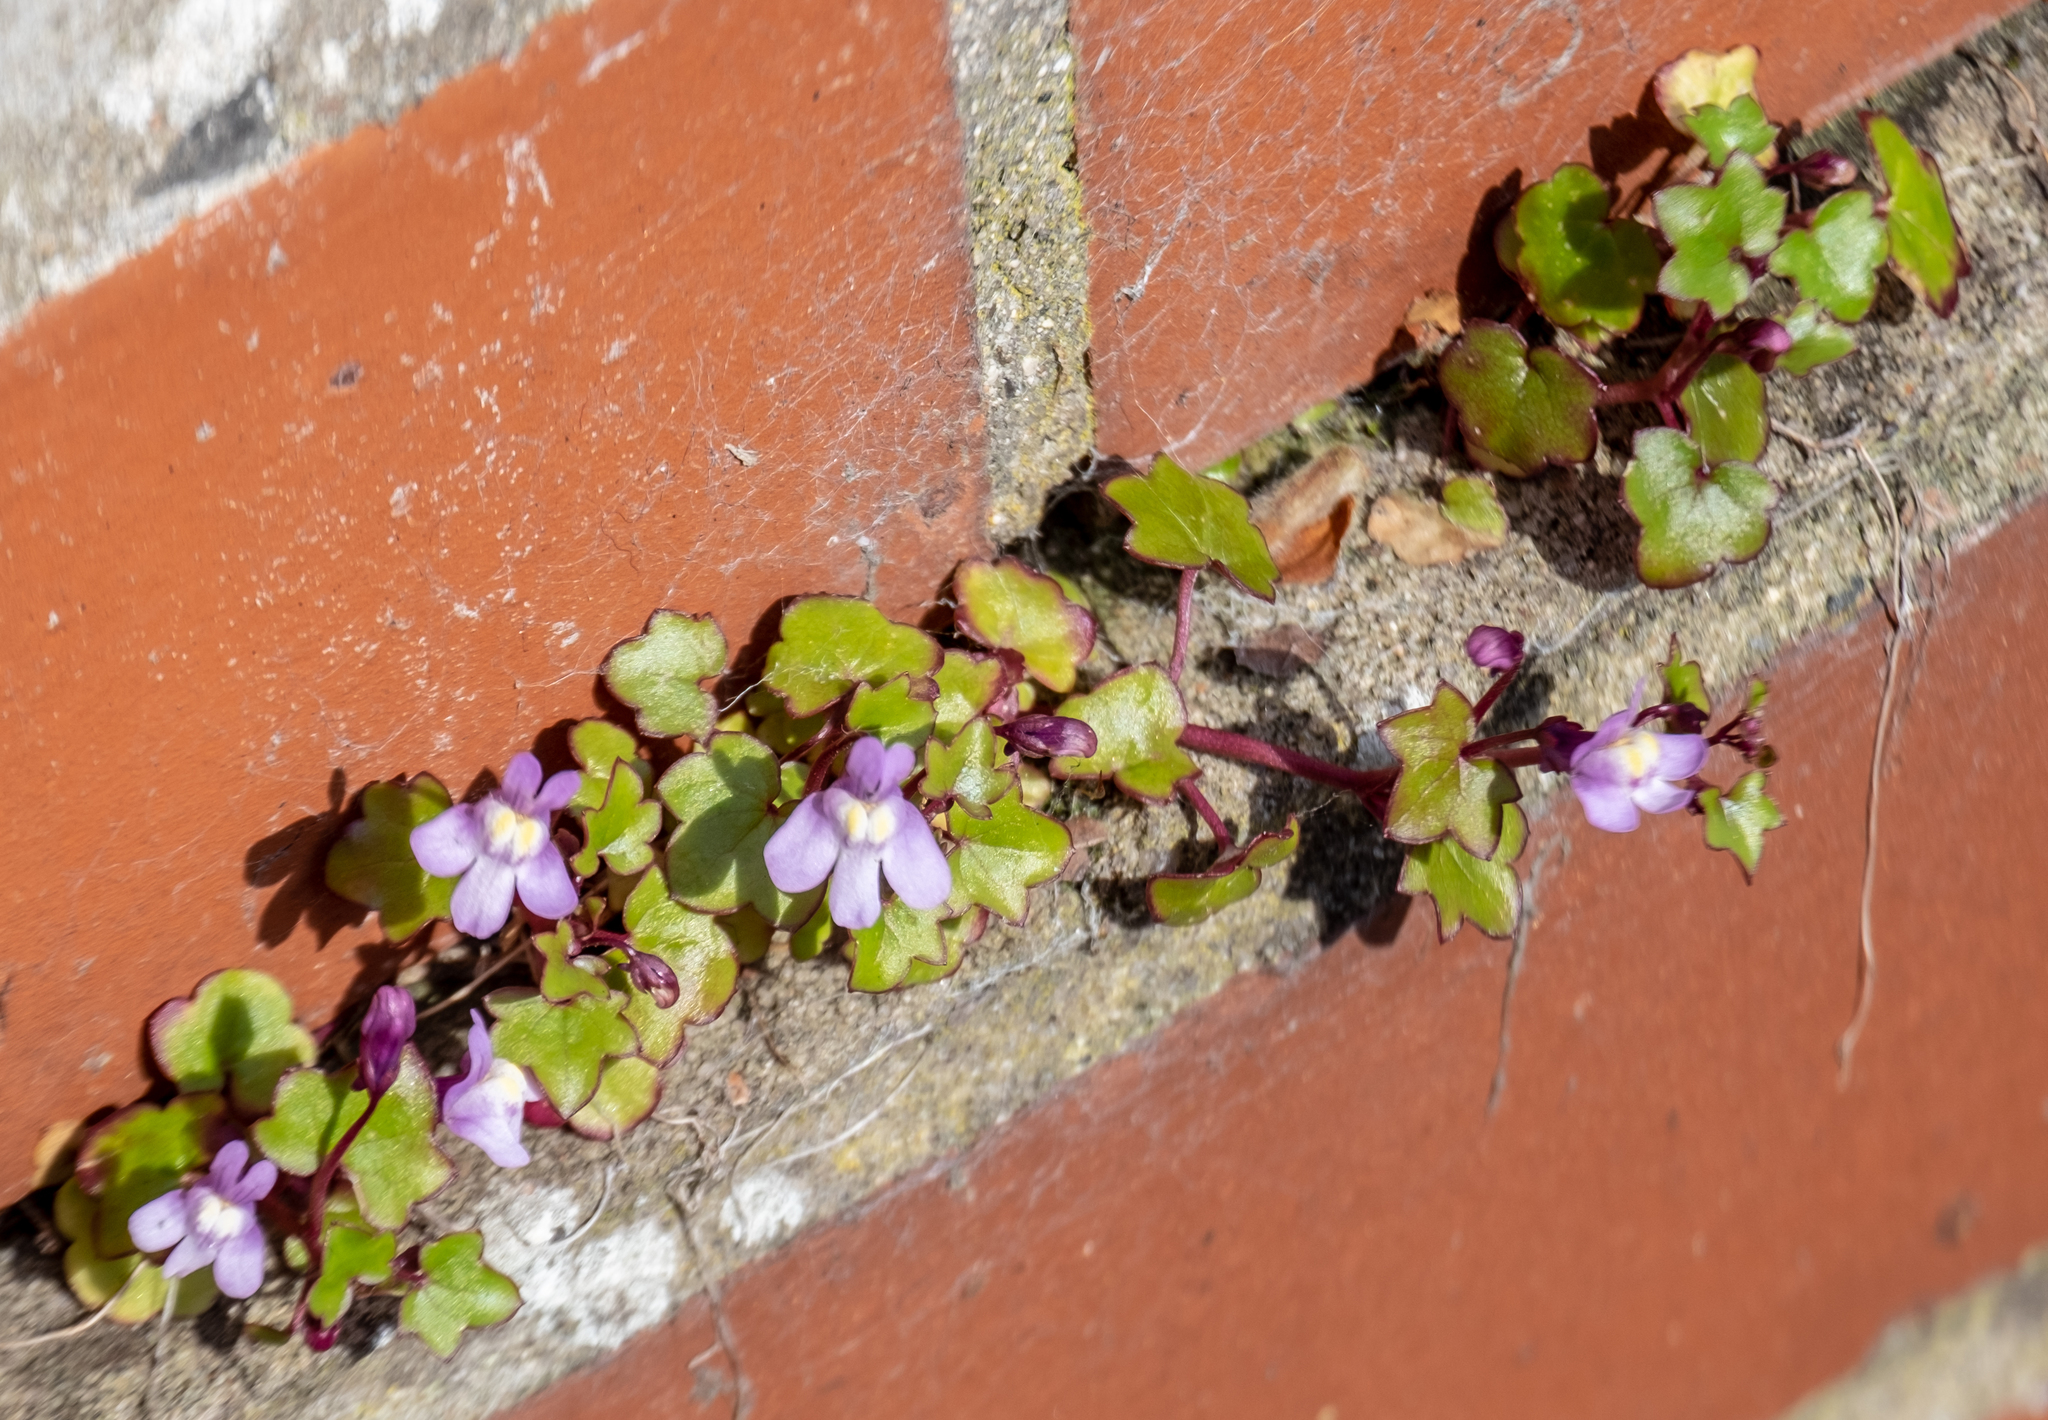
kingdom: Plantae
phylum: Tracheophyta
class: Magnoliopsida
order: Lamiales
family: Plantaginaceae
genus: Cymbalaria
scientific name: Cymbalaria muralis
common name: Ivy-leaved toadflax
